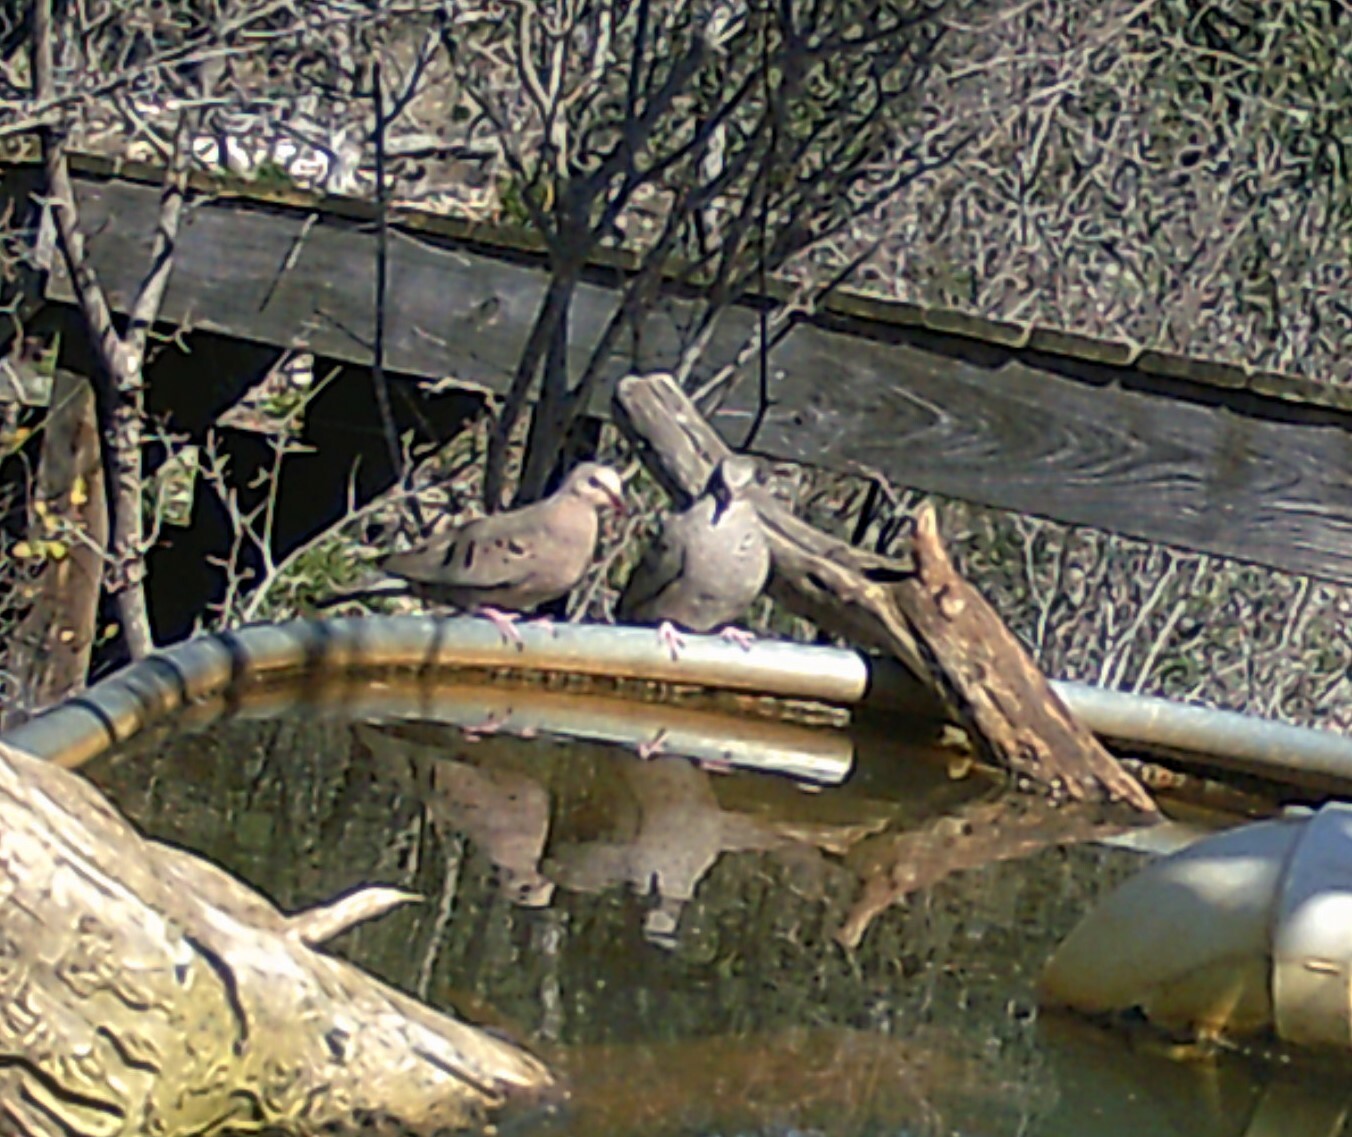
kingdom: Animalia
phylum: Chordata
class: Aves
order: Columbiformes
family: Columbidae
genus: Columbina
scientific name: Columbina passerina
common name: Common ground-dove
